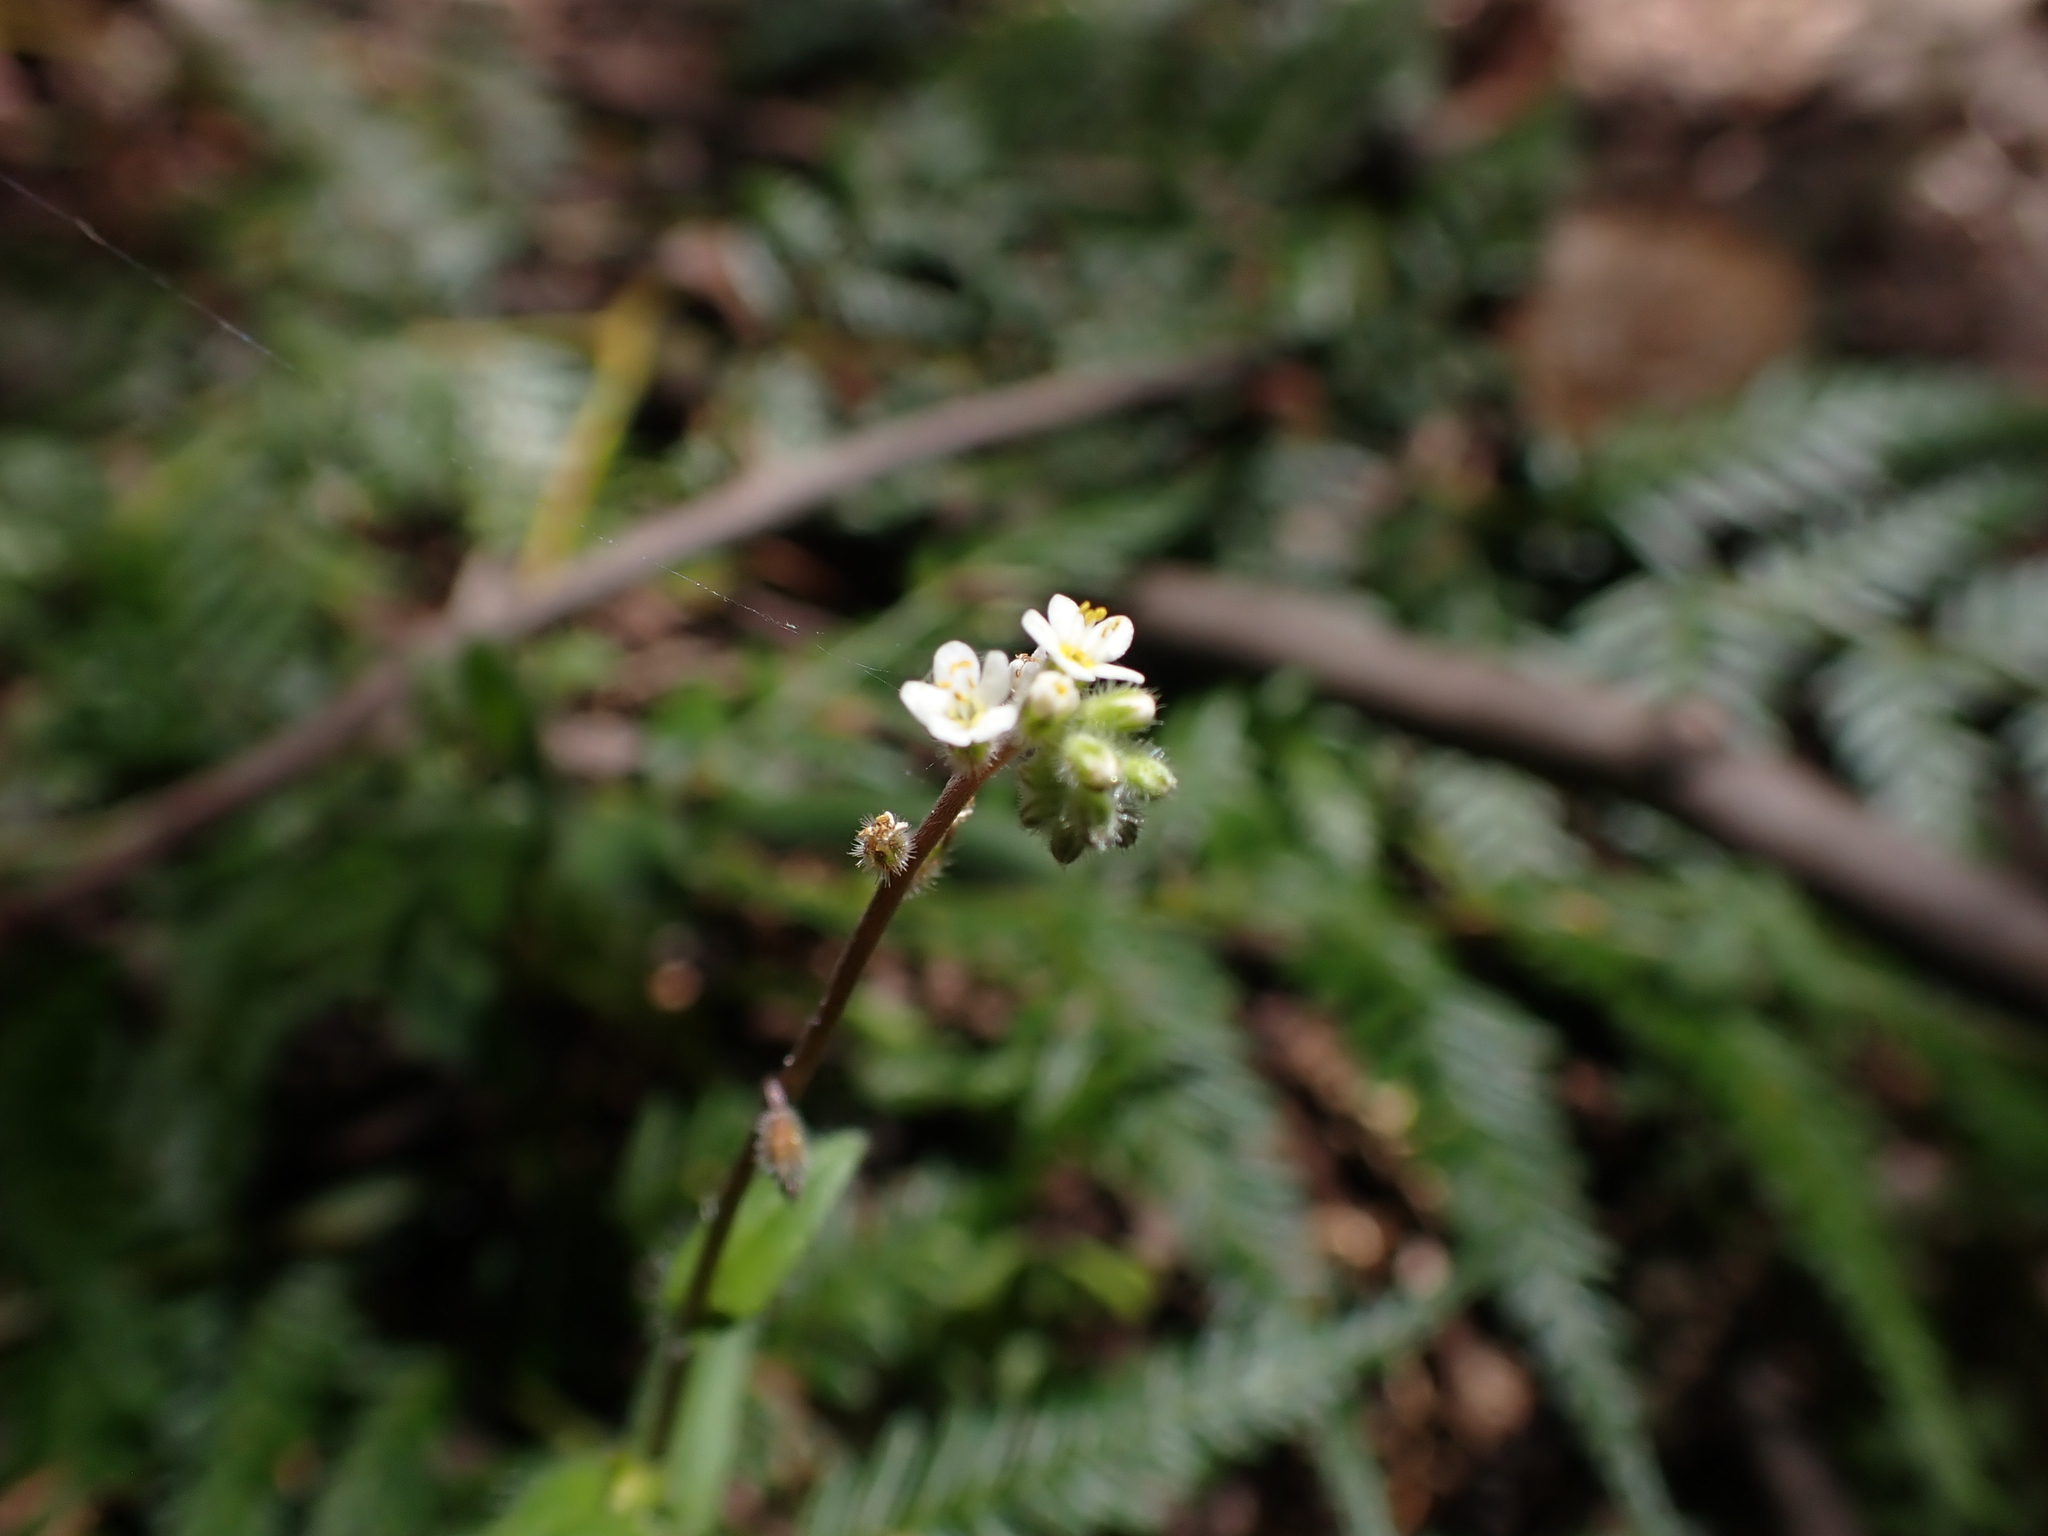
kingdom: Plantae
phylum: Tracheophyta
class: Magnoliopsida
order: Boraginales
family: Boraginaceae
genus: Myosotis
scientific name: Myosotis australis
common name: Australian forget-me-not
